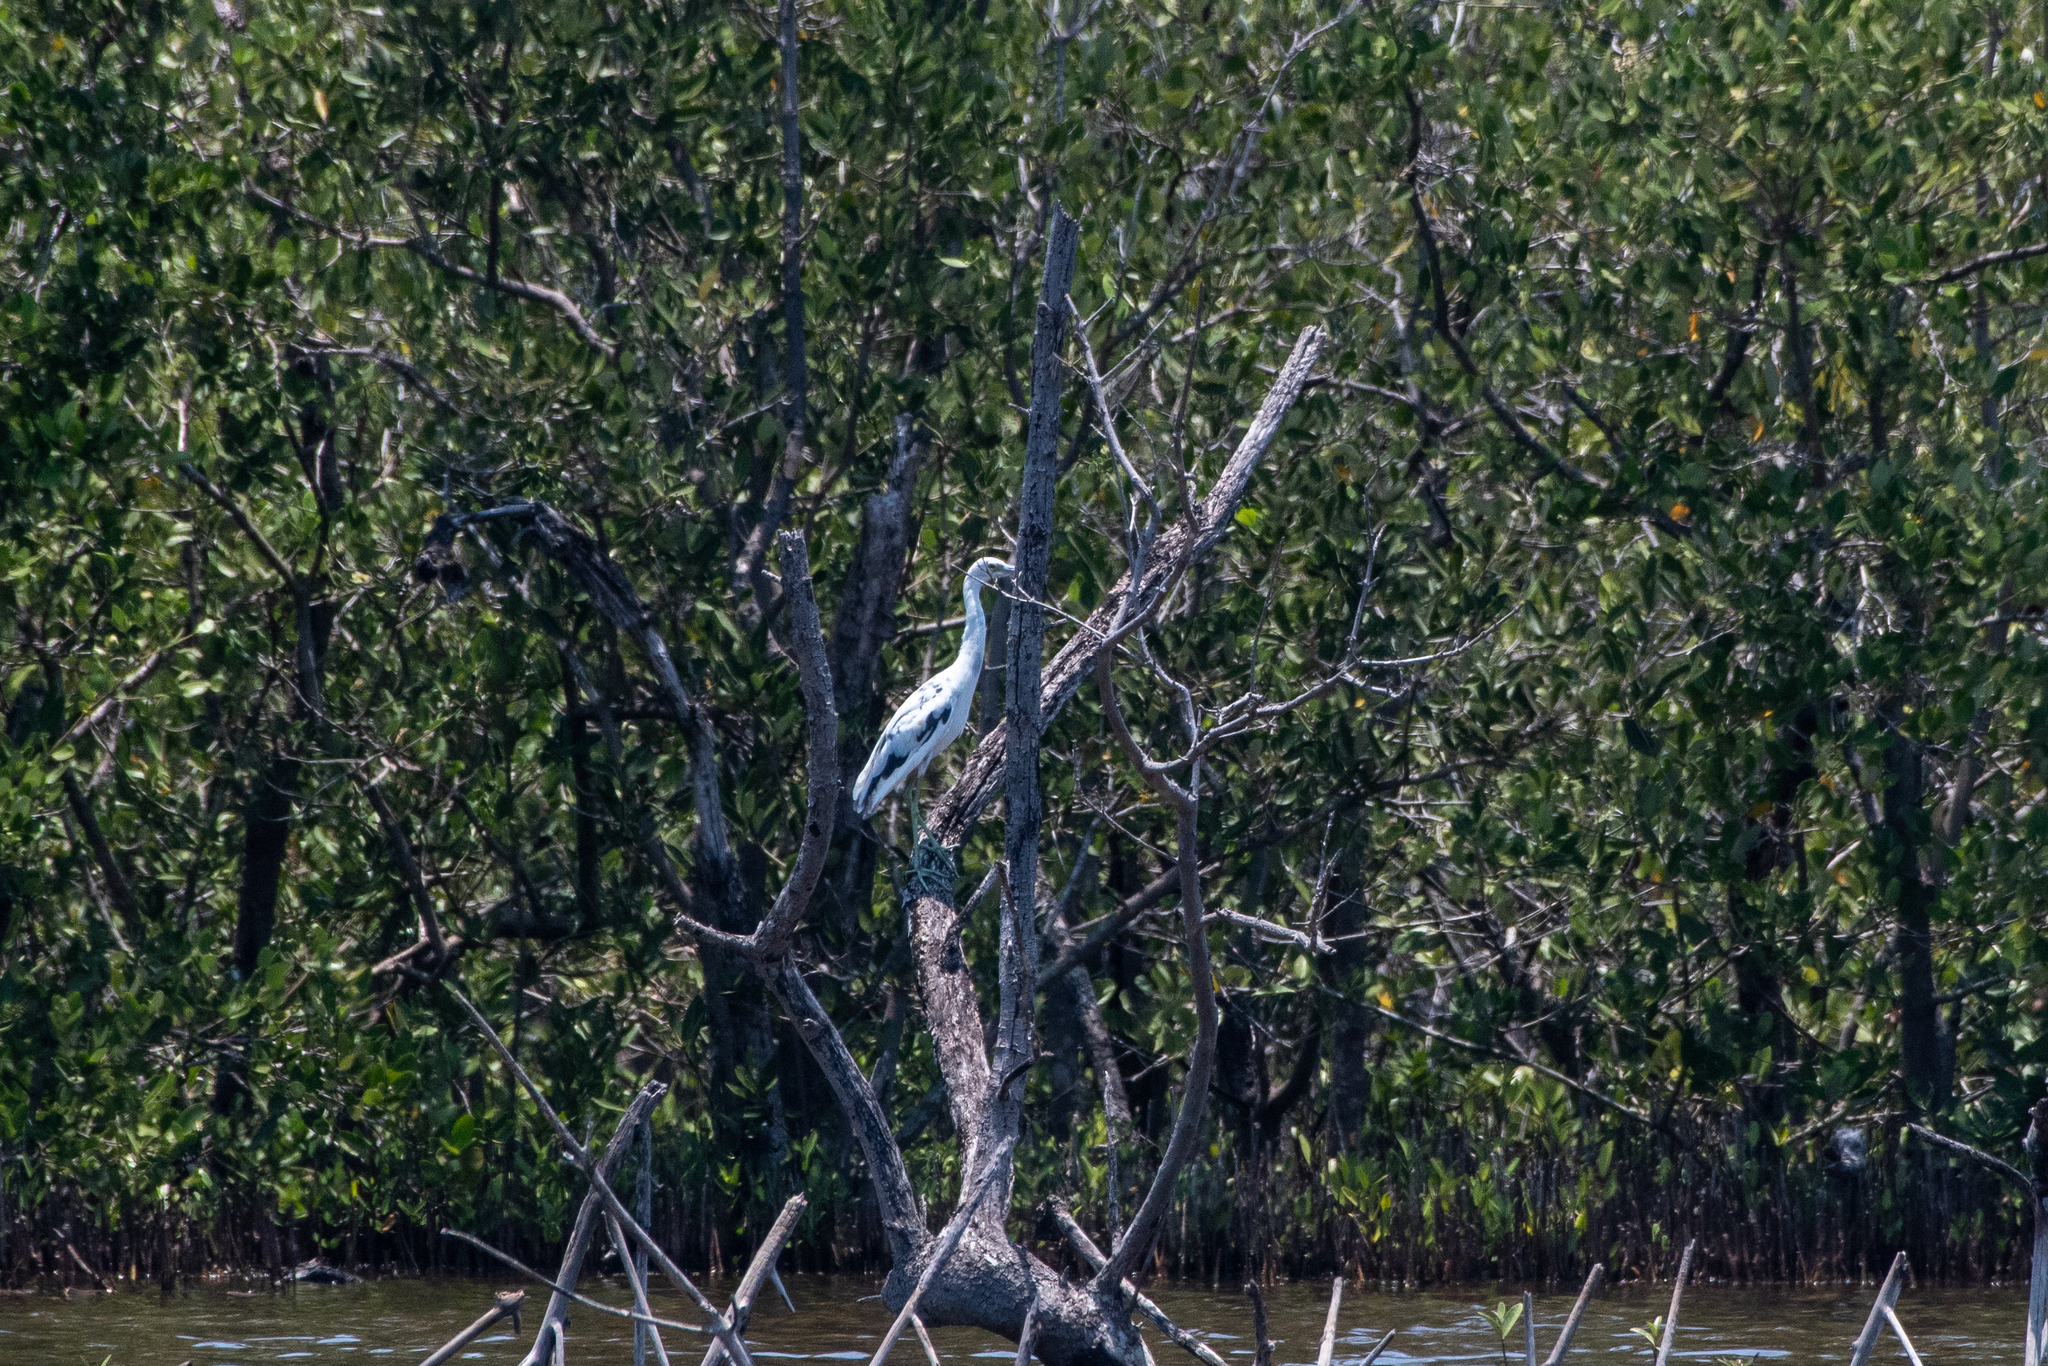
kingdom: Animalia
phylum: Chordata
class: Aves
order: Pelecaniformes
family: Ardeidae
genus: Egretta
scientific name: Egretta caerulea
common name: Little blue heron
